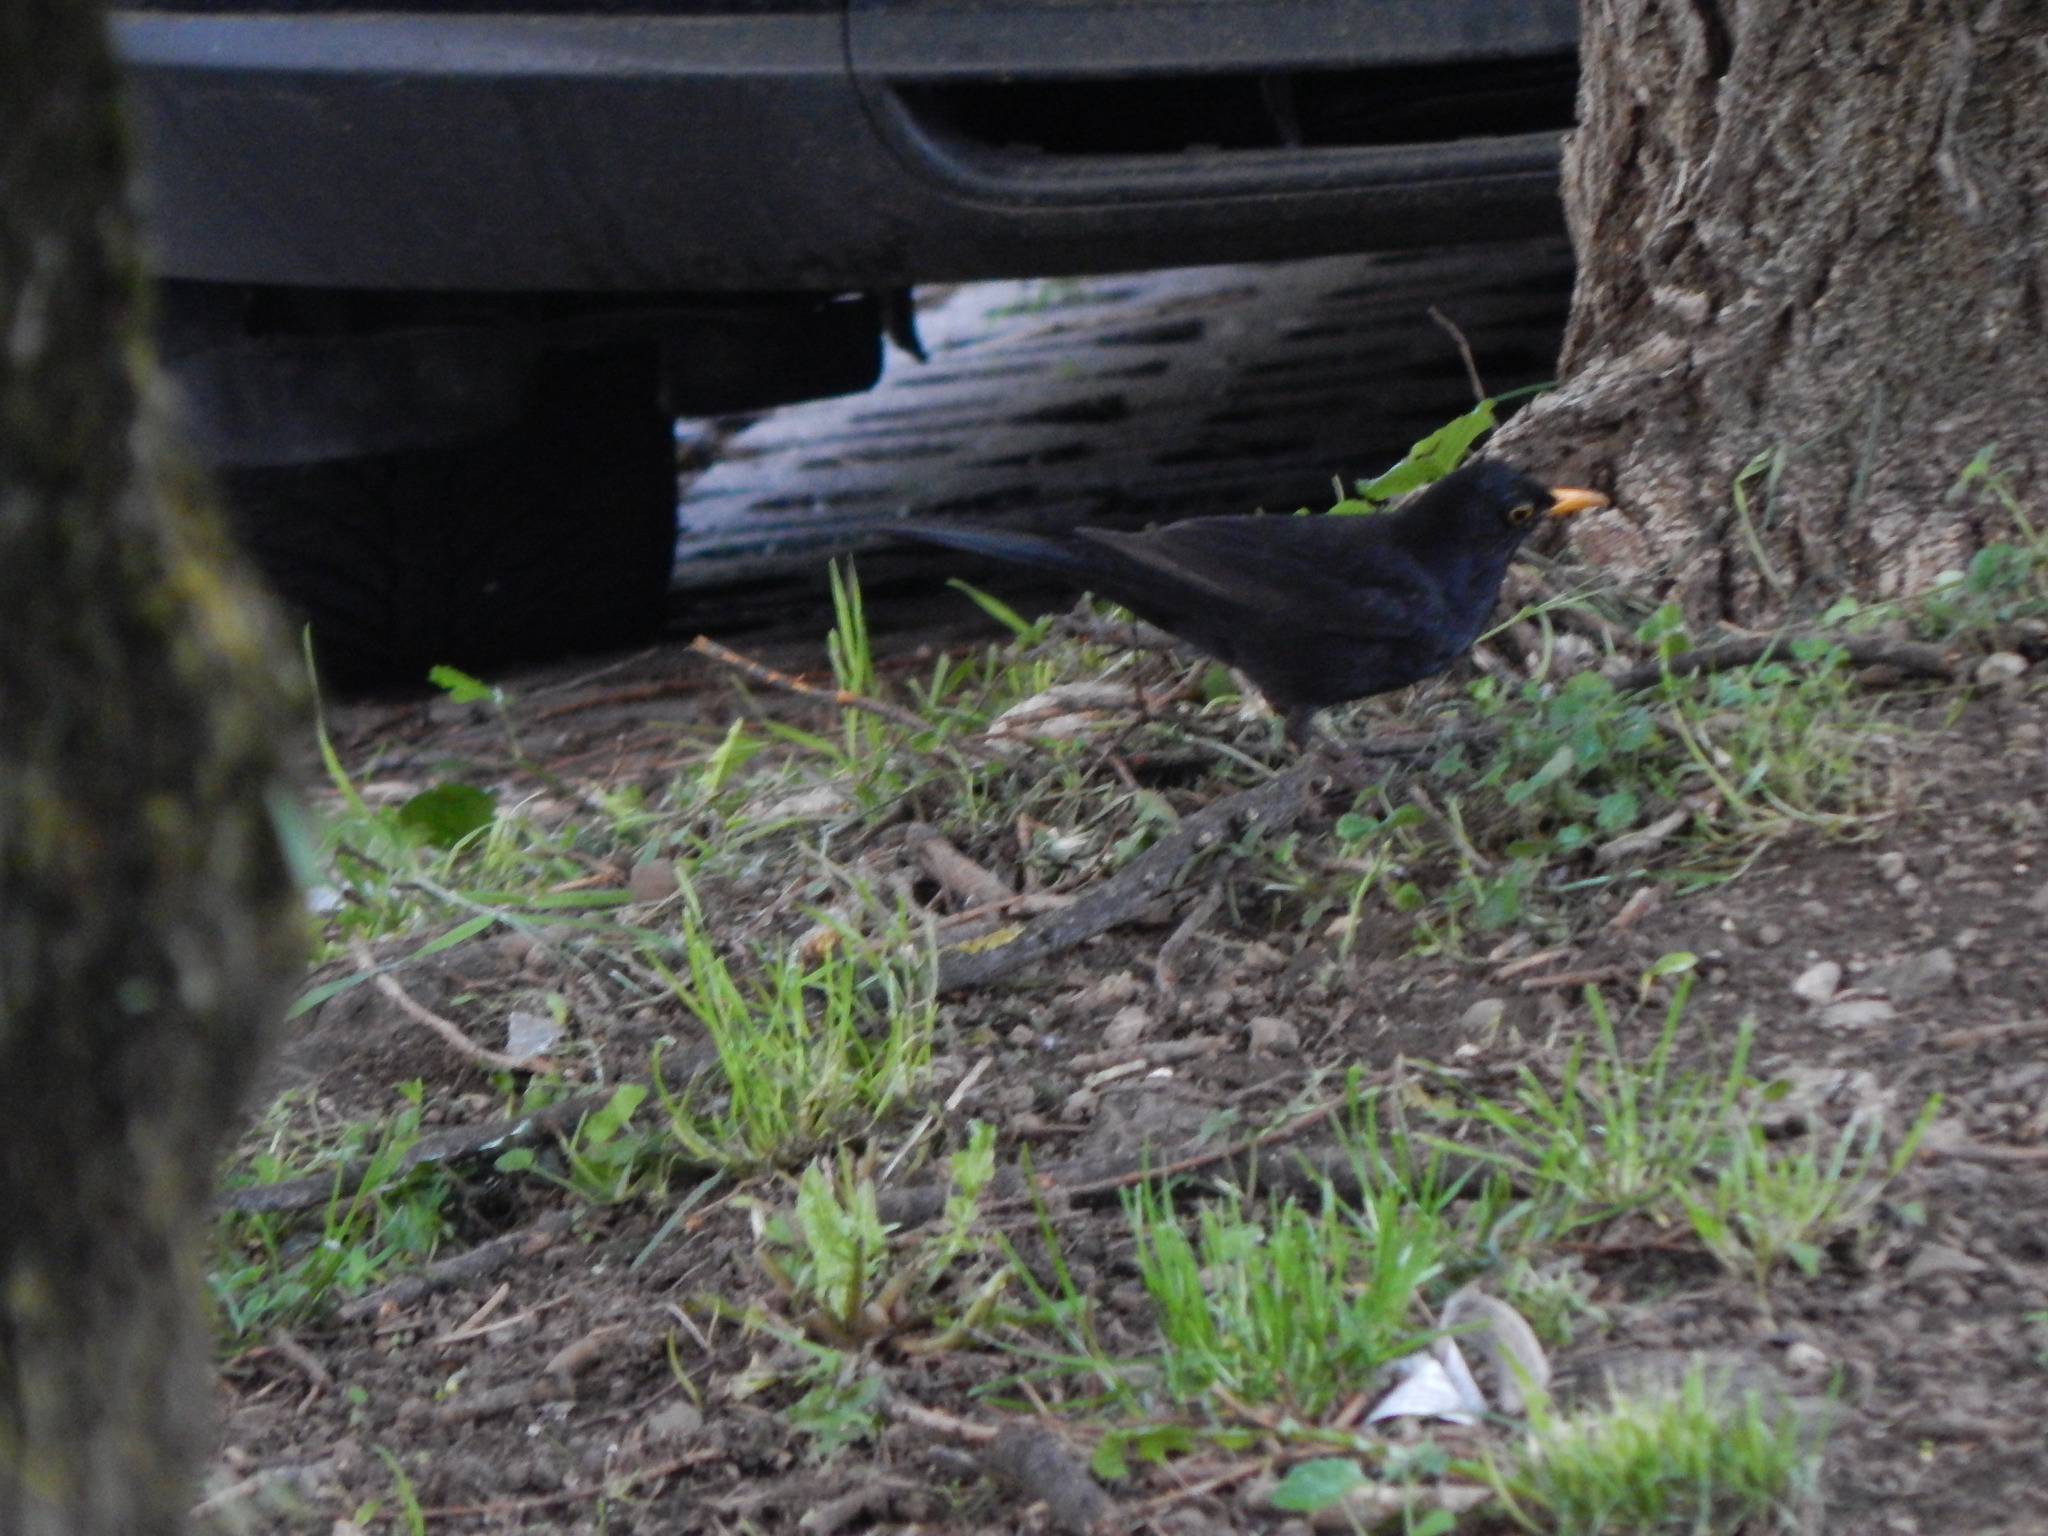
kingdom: Animalia
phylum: Chordata
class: Aves
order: Passeriformes
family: Turdidae
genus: Turdus
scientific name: Turdus merula
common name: Common blackbird
